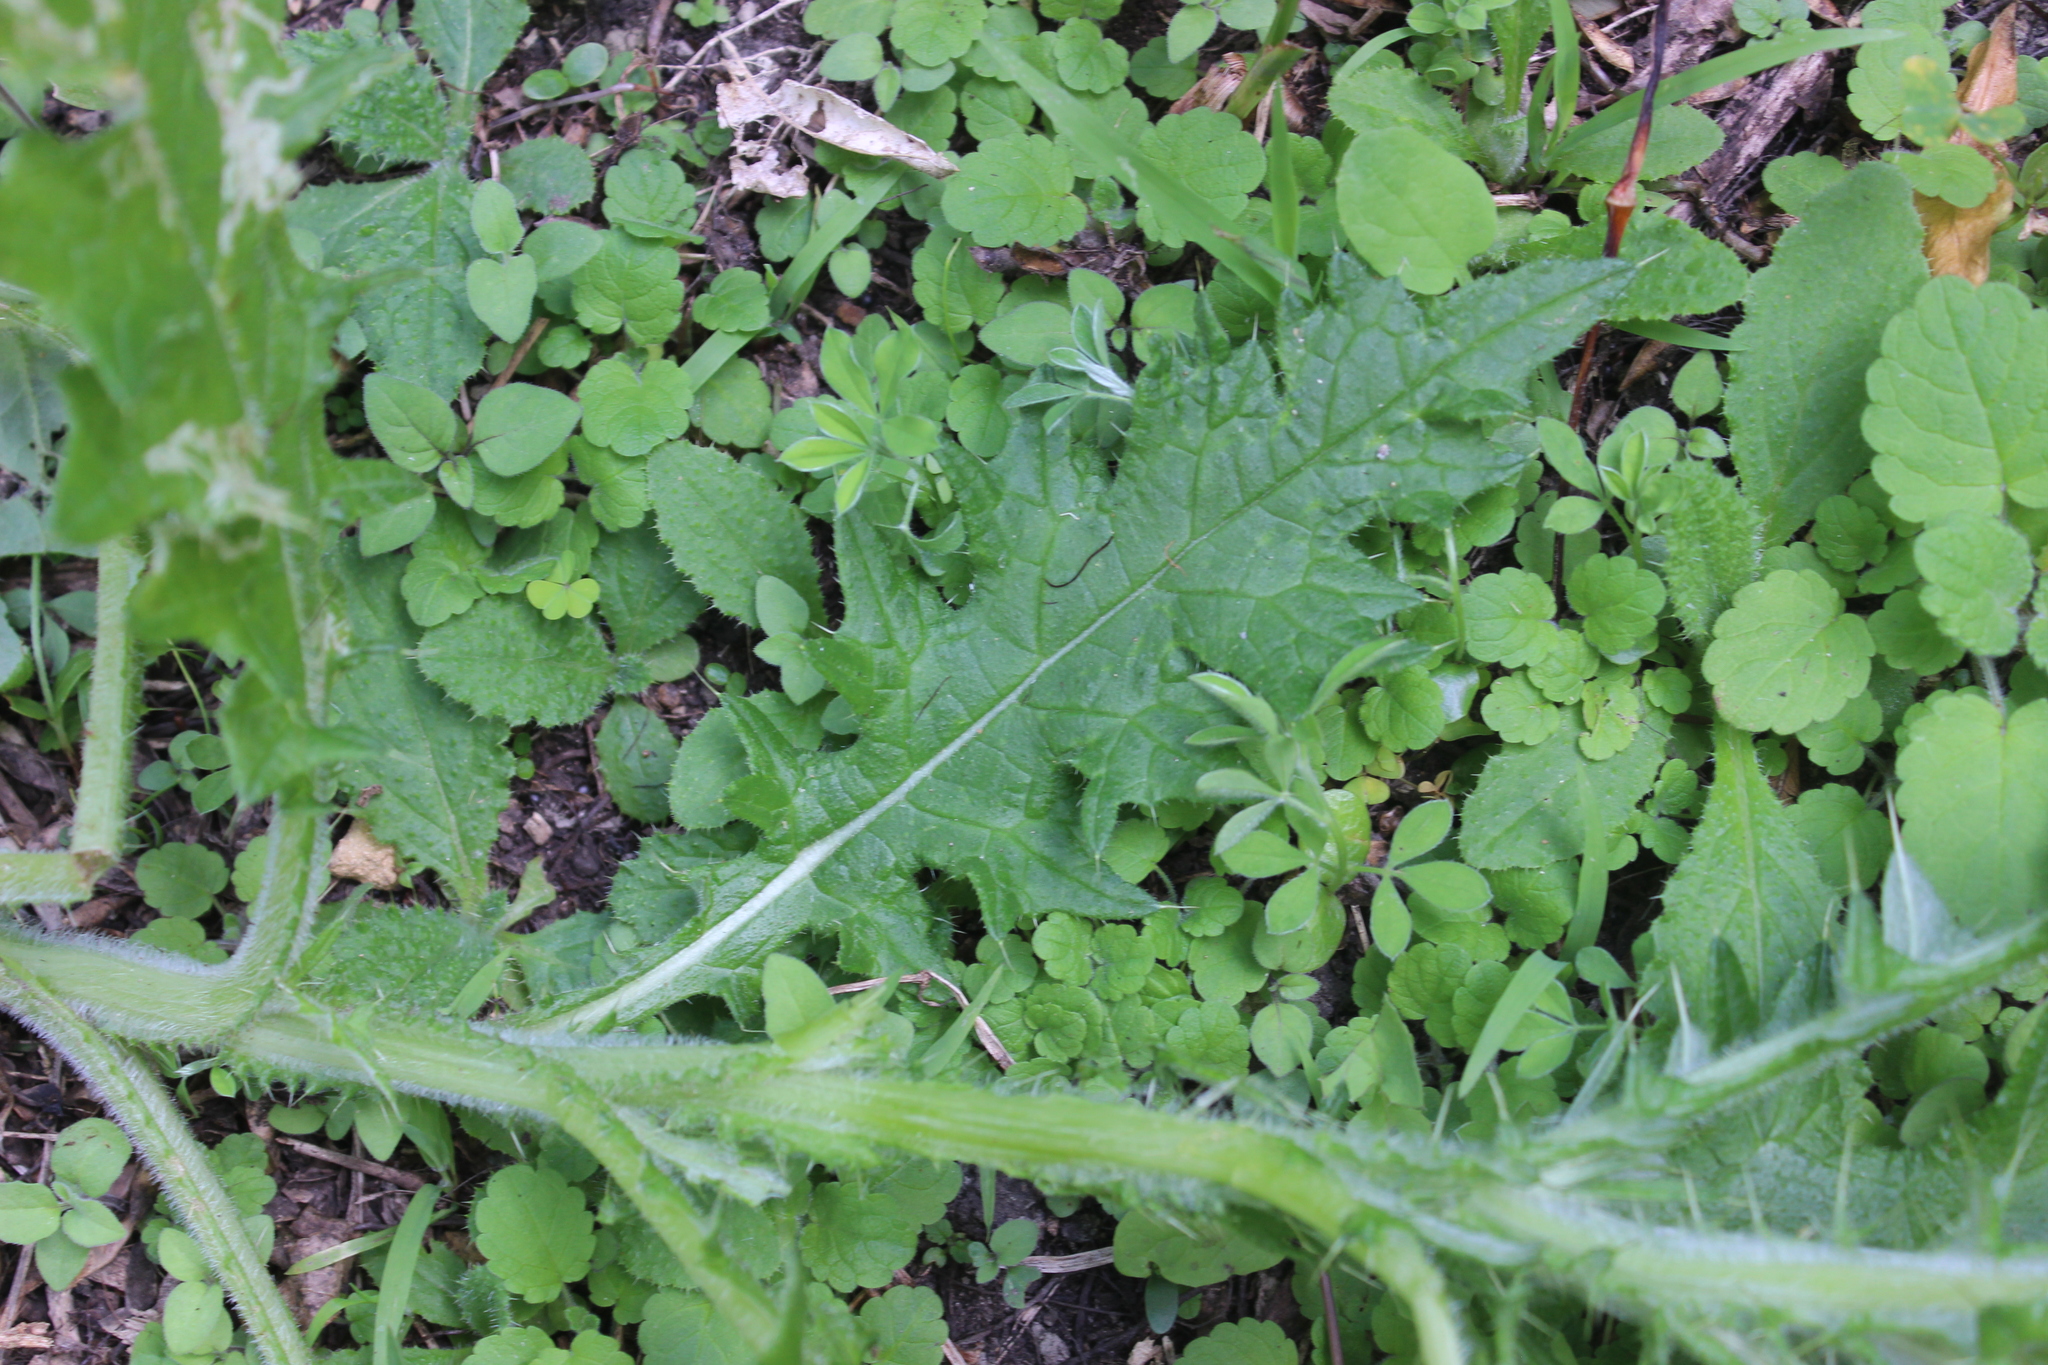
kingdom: Plantae
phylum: Tracheophyta
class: Magnoliopsida
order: Asterales
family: Asteraceae
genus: Cirsium
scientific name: Cirsium vulgare
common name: Bull thistle
